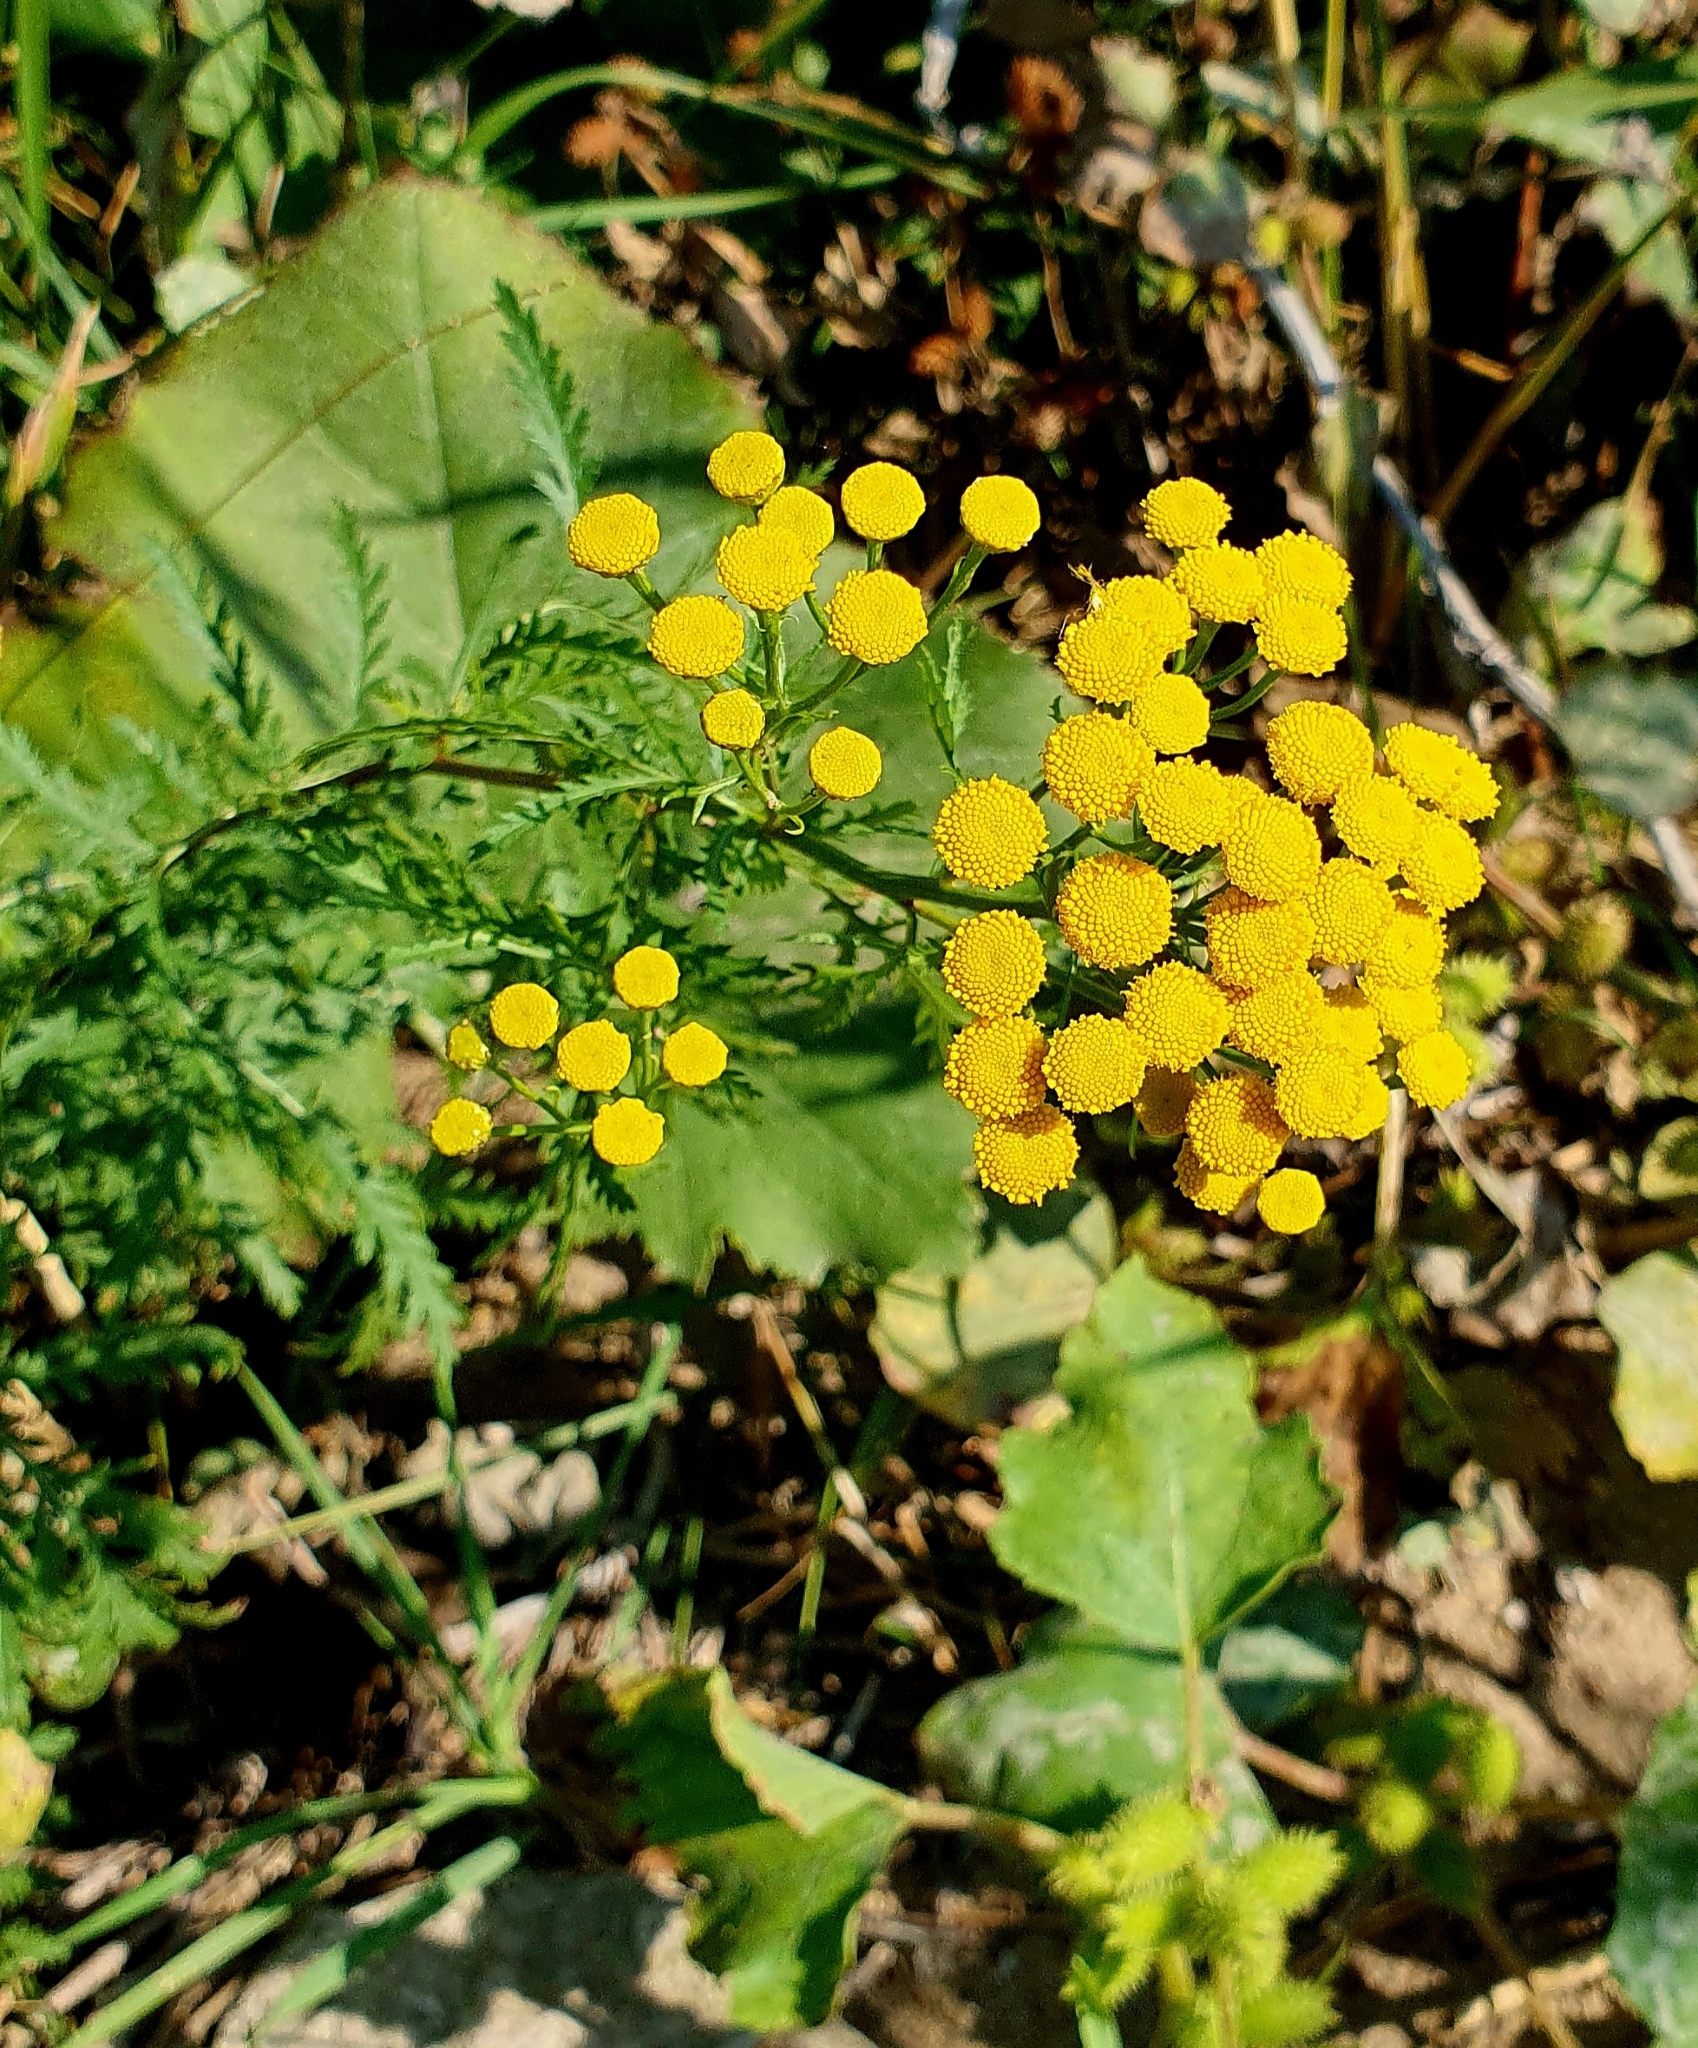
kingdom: Plantae
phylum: Tracheophyta
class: Magnoliopsida
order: Asterales
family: Asteraceae
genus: Tanacetum
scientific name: Tanacetum vulgare
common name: Common tansy
